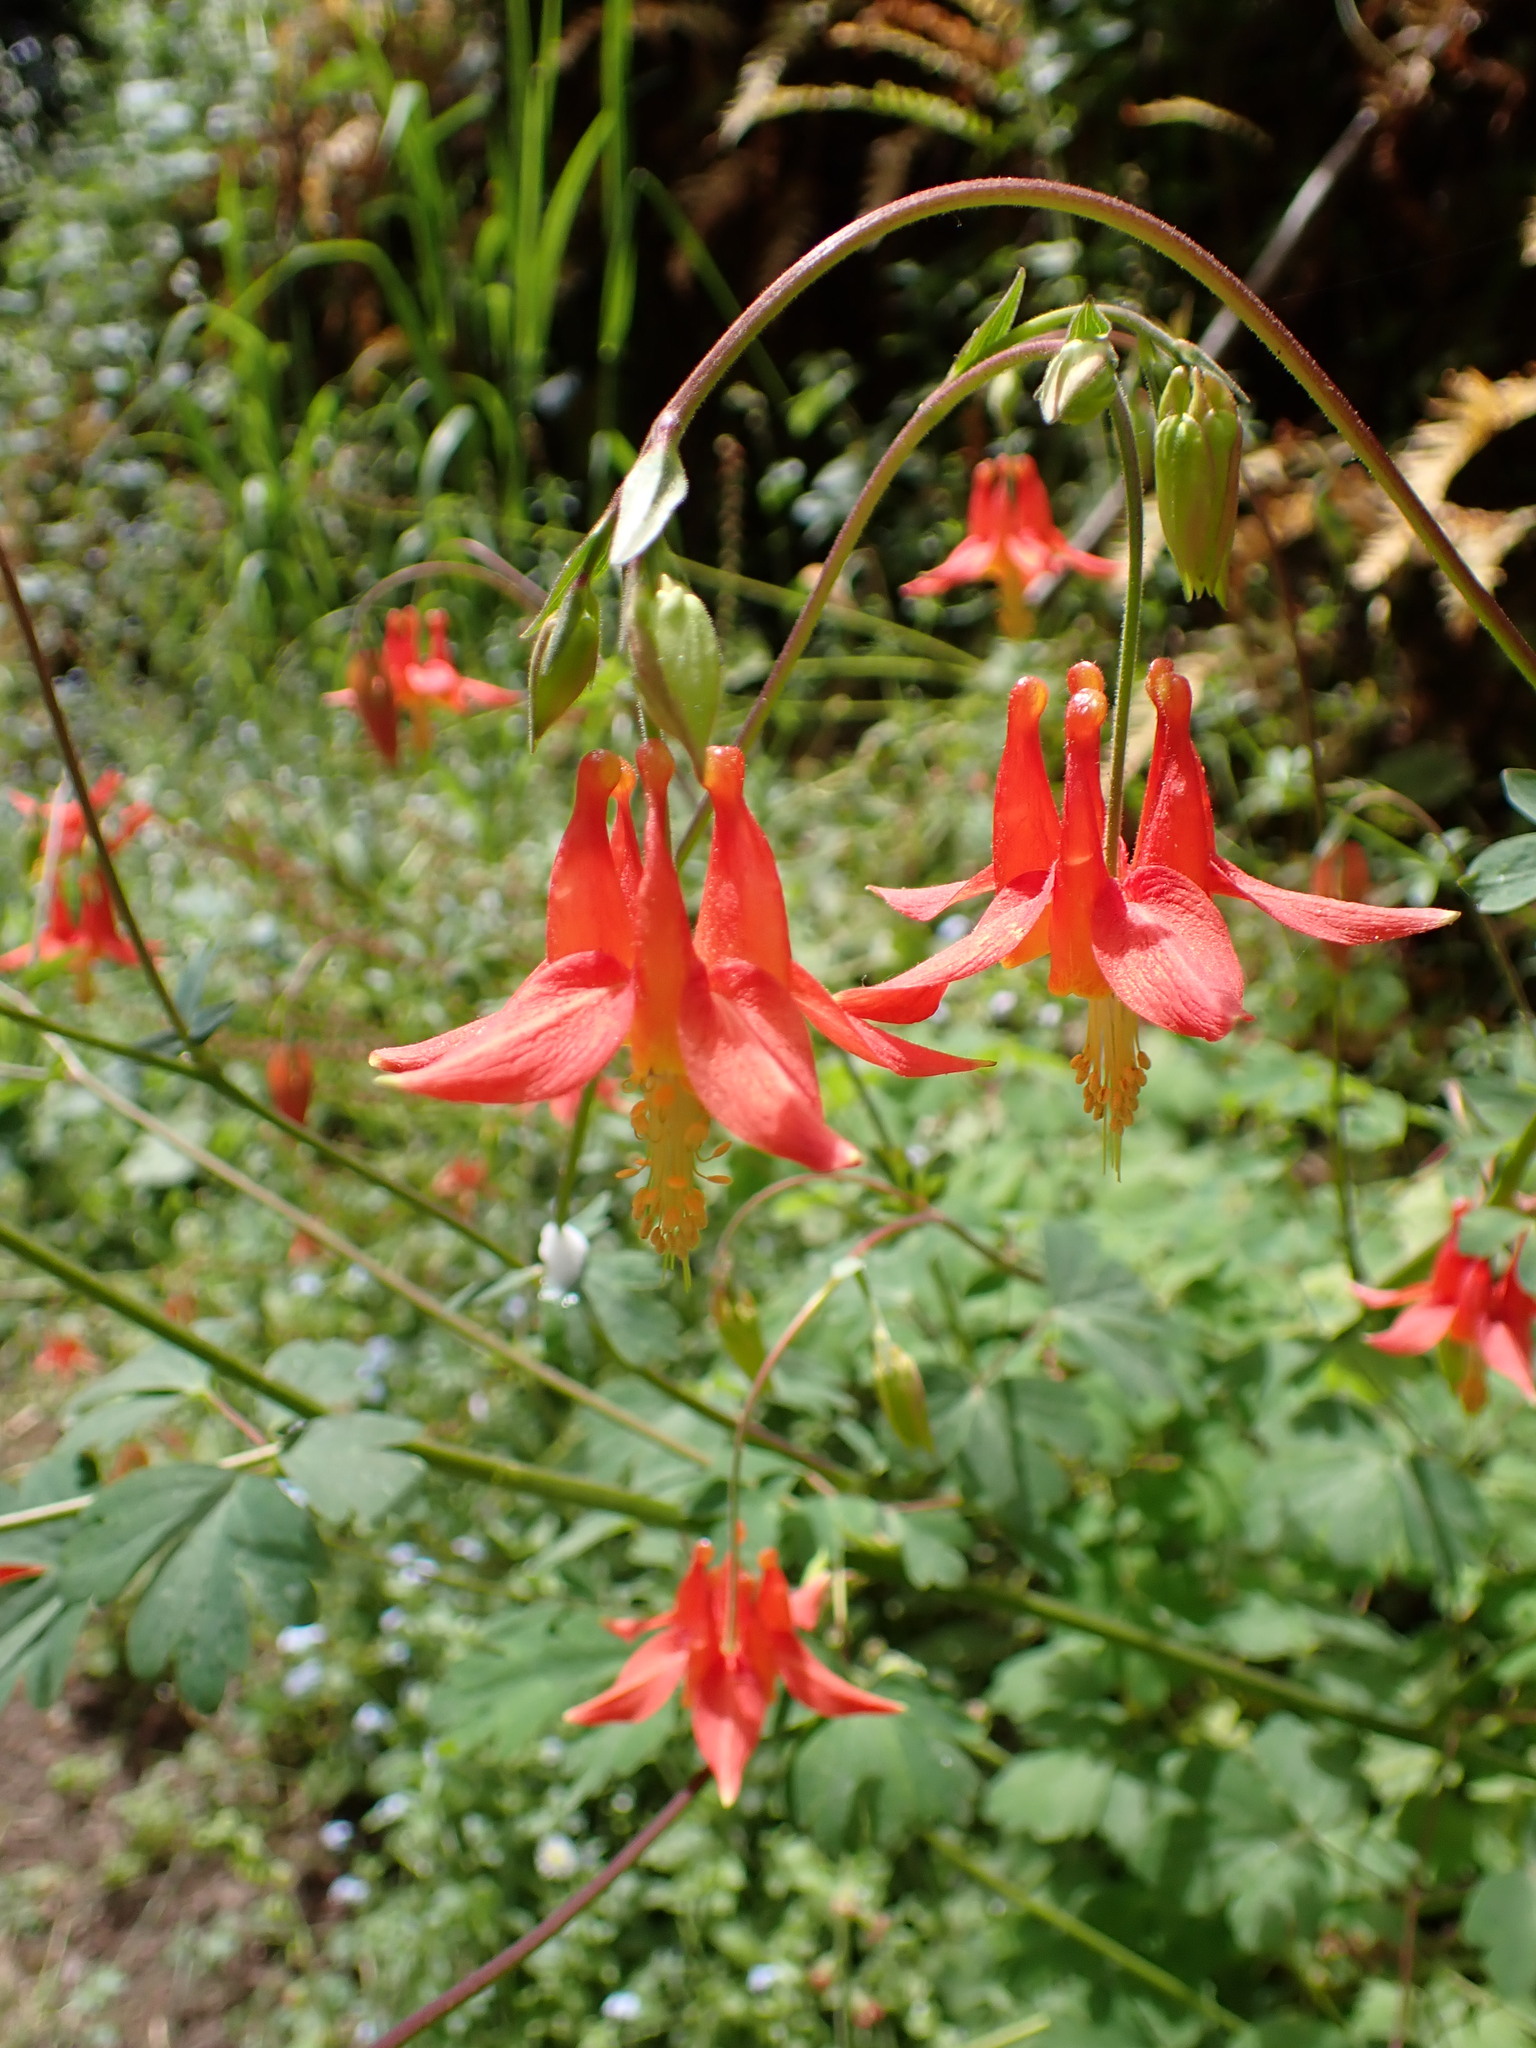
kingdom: Plantae
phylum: Tracheophyta
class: Magnoliopsida
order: Ranunculales
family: Ranunculaceae
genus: Aquilegia
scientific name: Aquilegia formosa
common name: Sitka columbine
